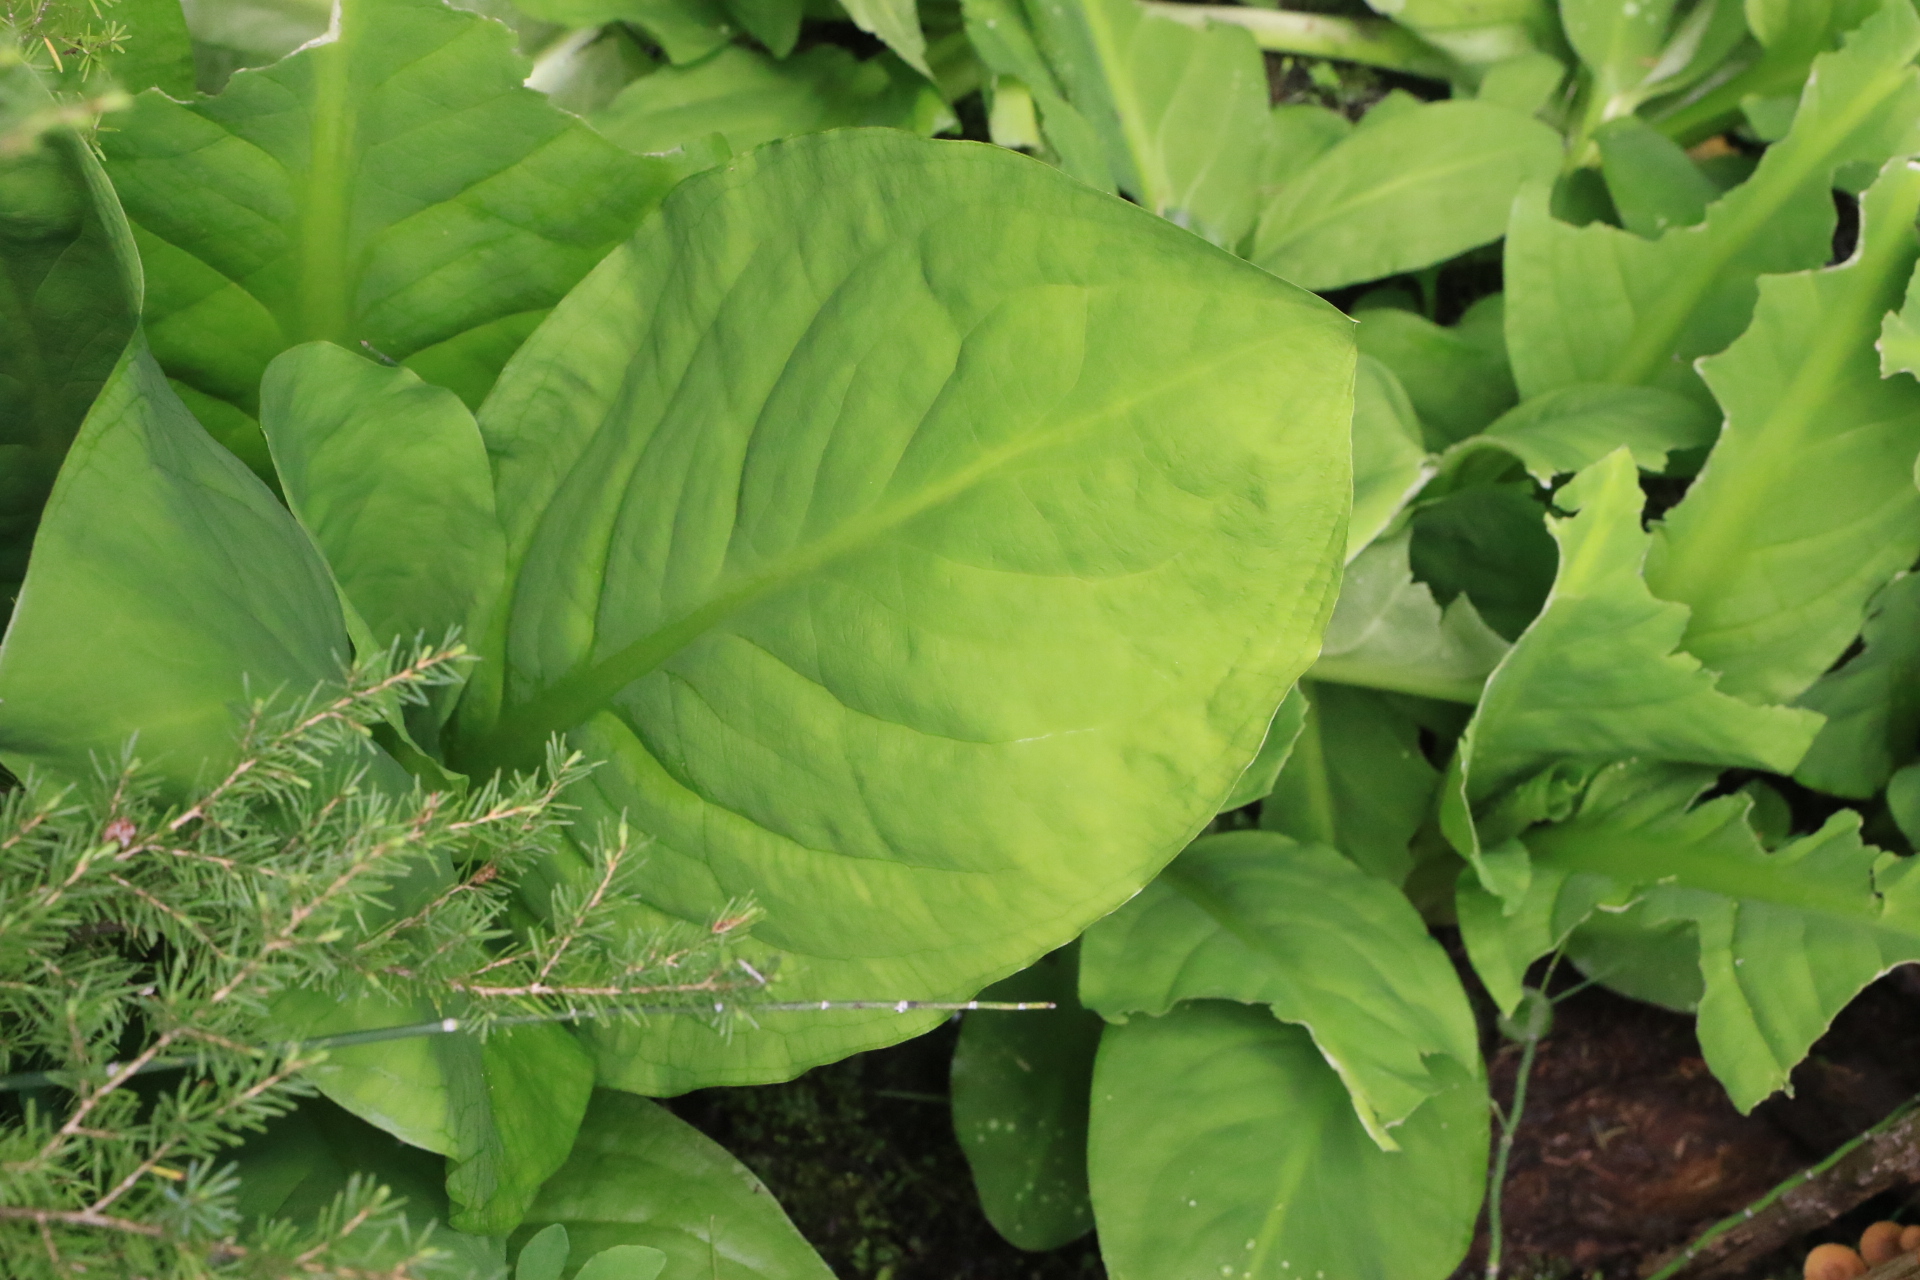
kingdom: Plantae
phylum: Tracheophyta
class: Liliopsida
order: Alismatales
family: Araceae
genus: Lysichiton
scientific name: Lysichiton americanus
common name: American skunk cabbage
